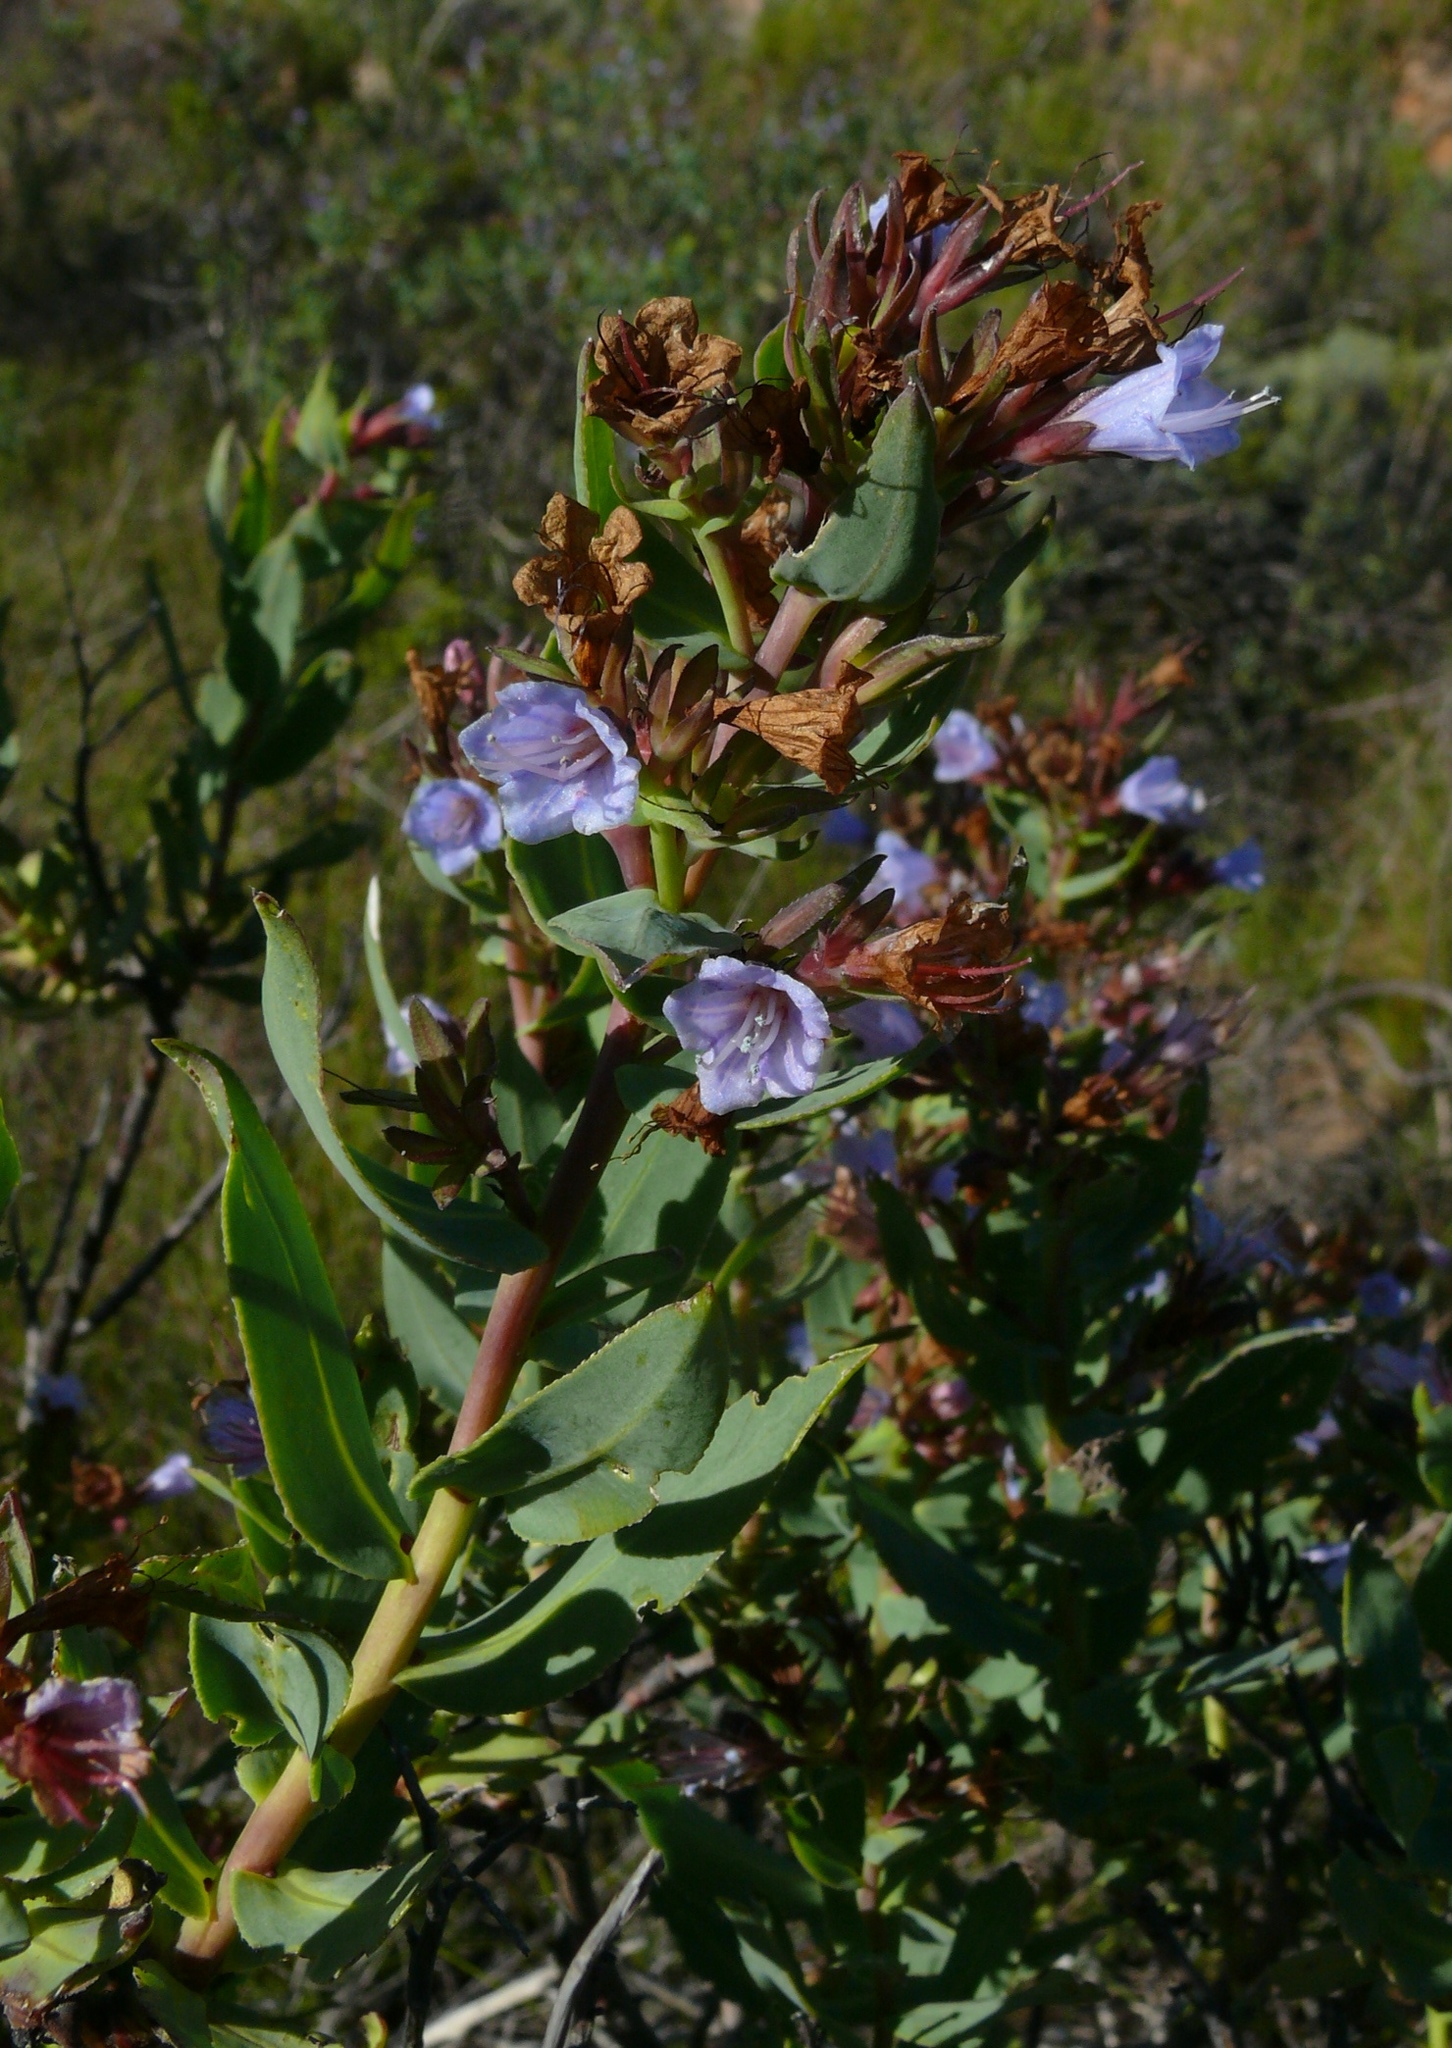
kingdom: Plantae
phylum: Tracheophyta
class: Magnoliopsida
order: Boraginales
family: Boraginaceae
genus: Lobostemon
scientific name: Lobostemon laevigatus
